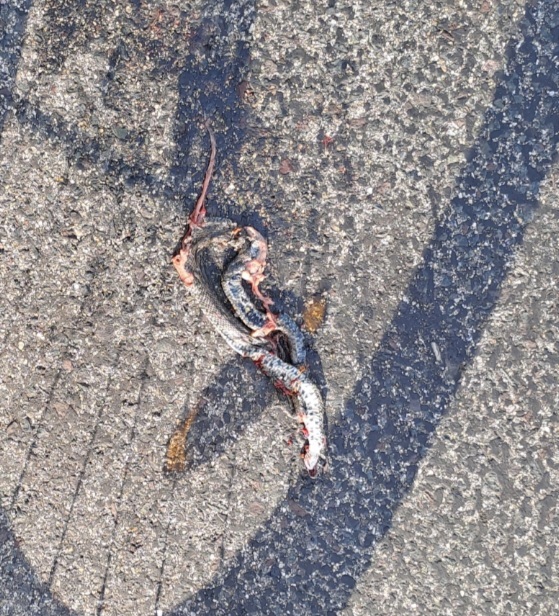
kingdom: Animalia
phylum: Chordata
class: Squamata
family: Colubridae
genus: Natrix
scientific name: Natrix natrix
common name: Grass snake
